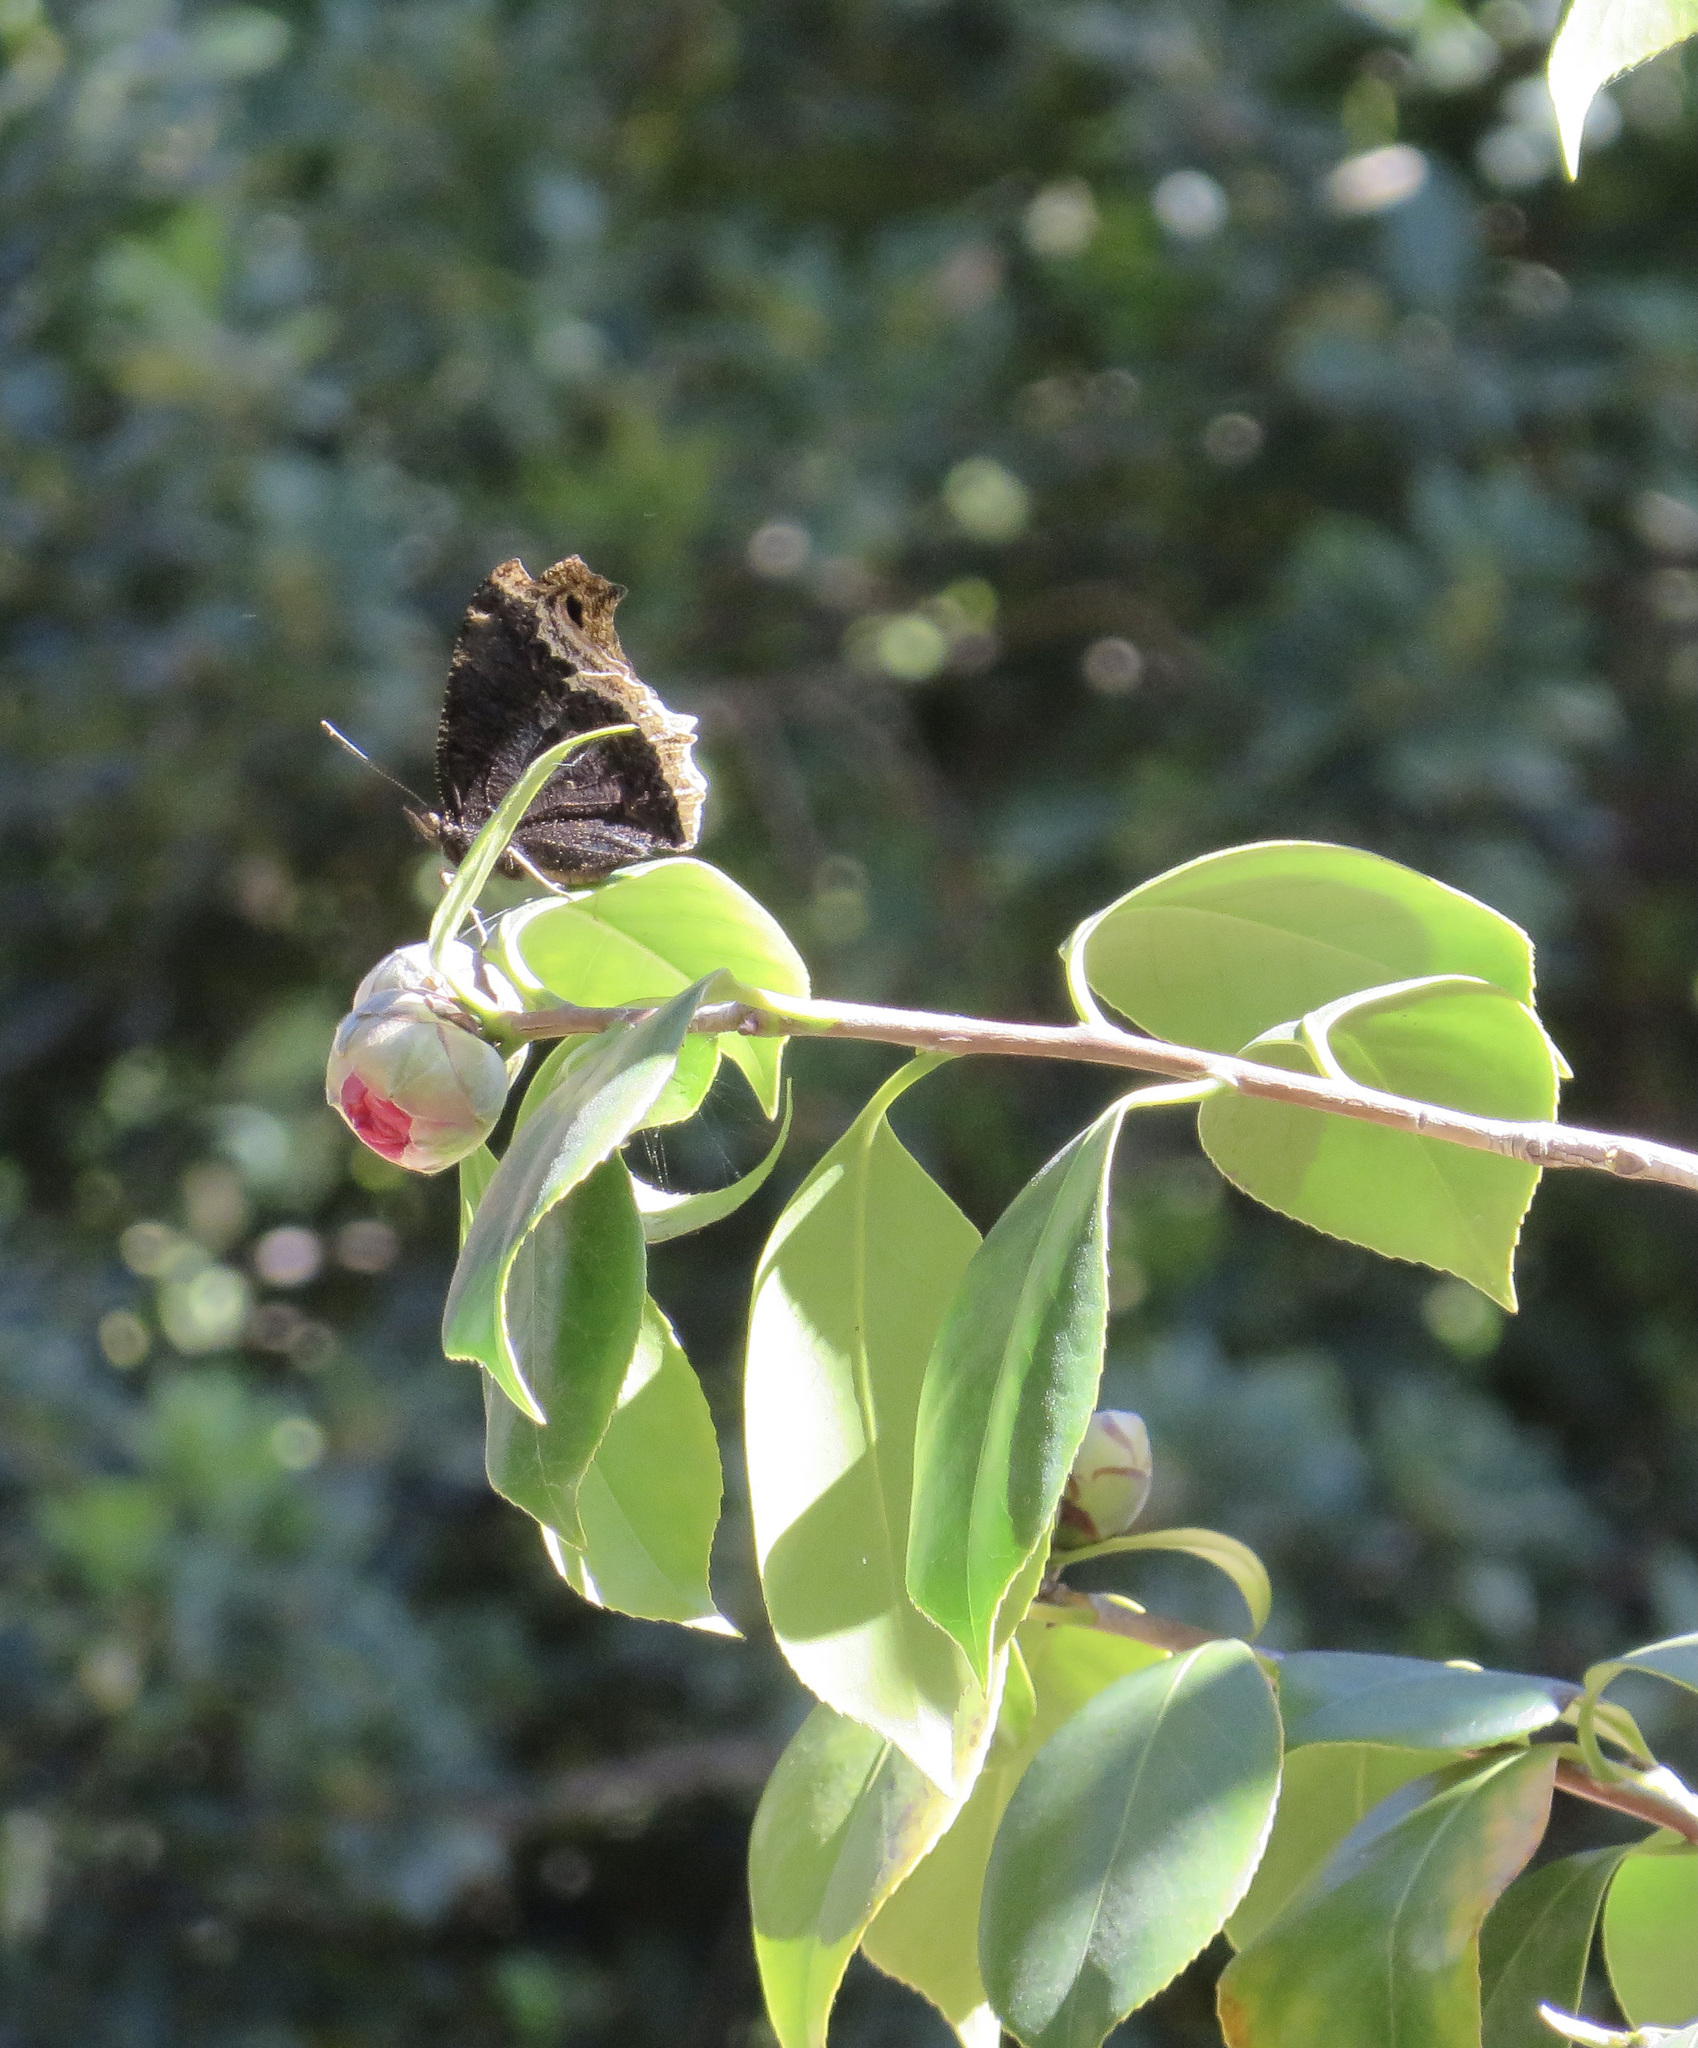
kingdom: Animalia
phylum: Arthropoda
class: Insecta
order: Lepidoptera
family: Nymphalidae
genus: Nymphalis
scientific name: Nymphalis antiopa
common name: Camberwell beauty
